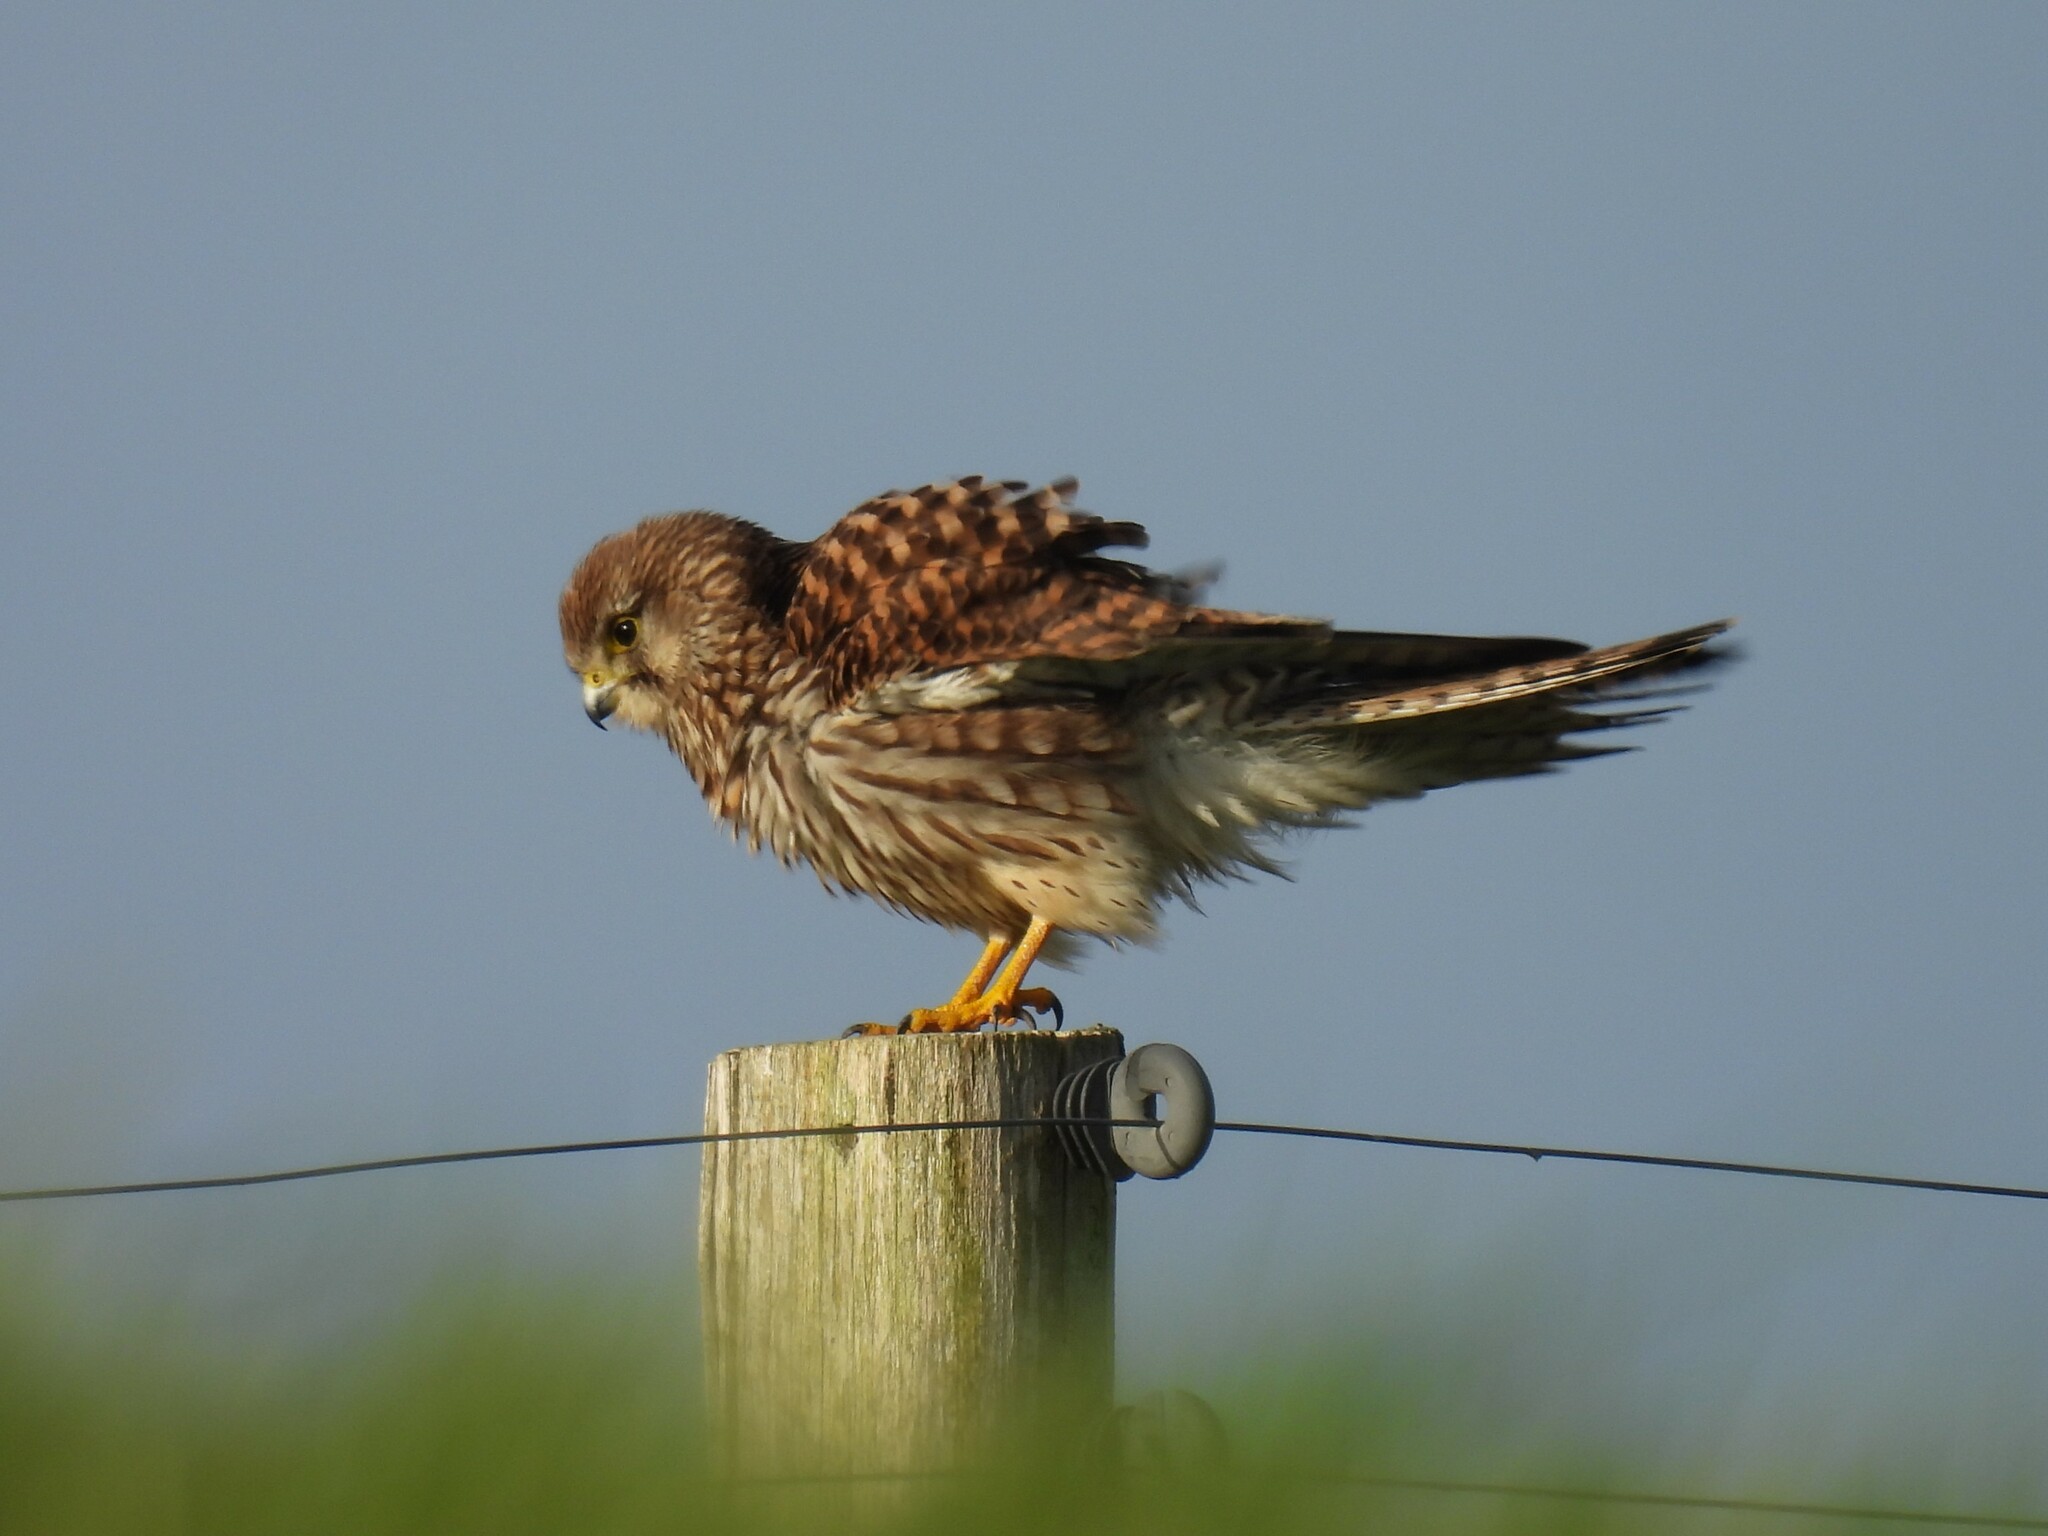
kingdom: Animalia
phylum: Chordata
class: Aves
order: Falconiformes
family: Falconidae
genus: Falco
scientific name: Falco tinnunculus
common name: Common kestrel
